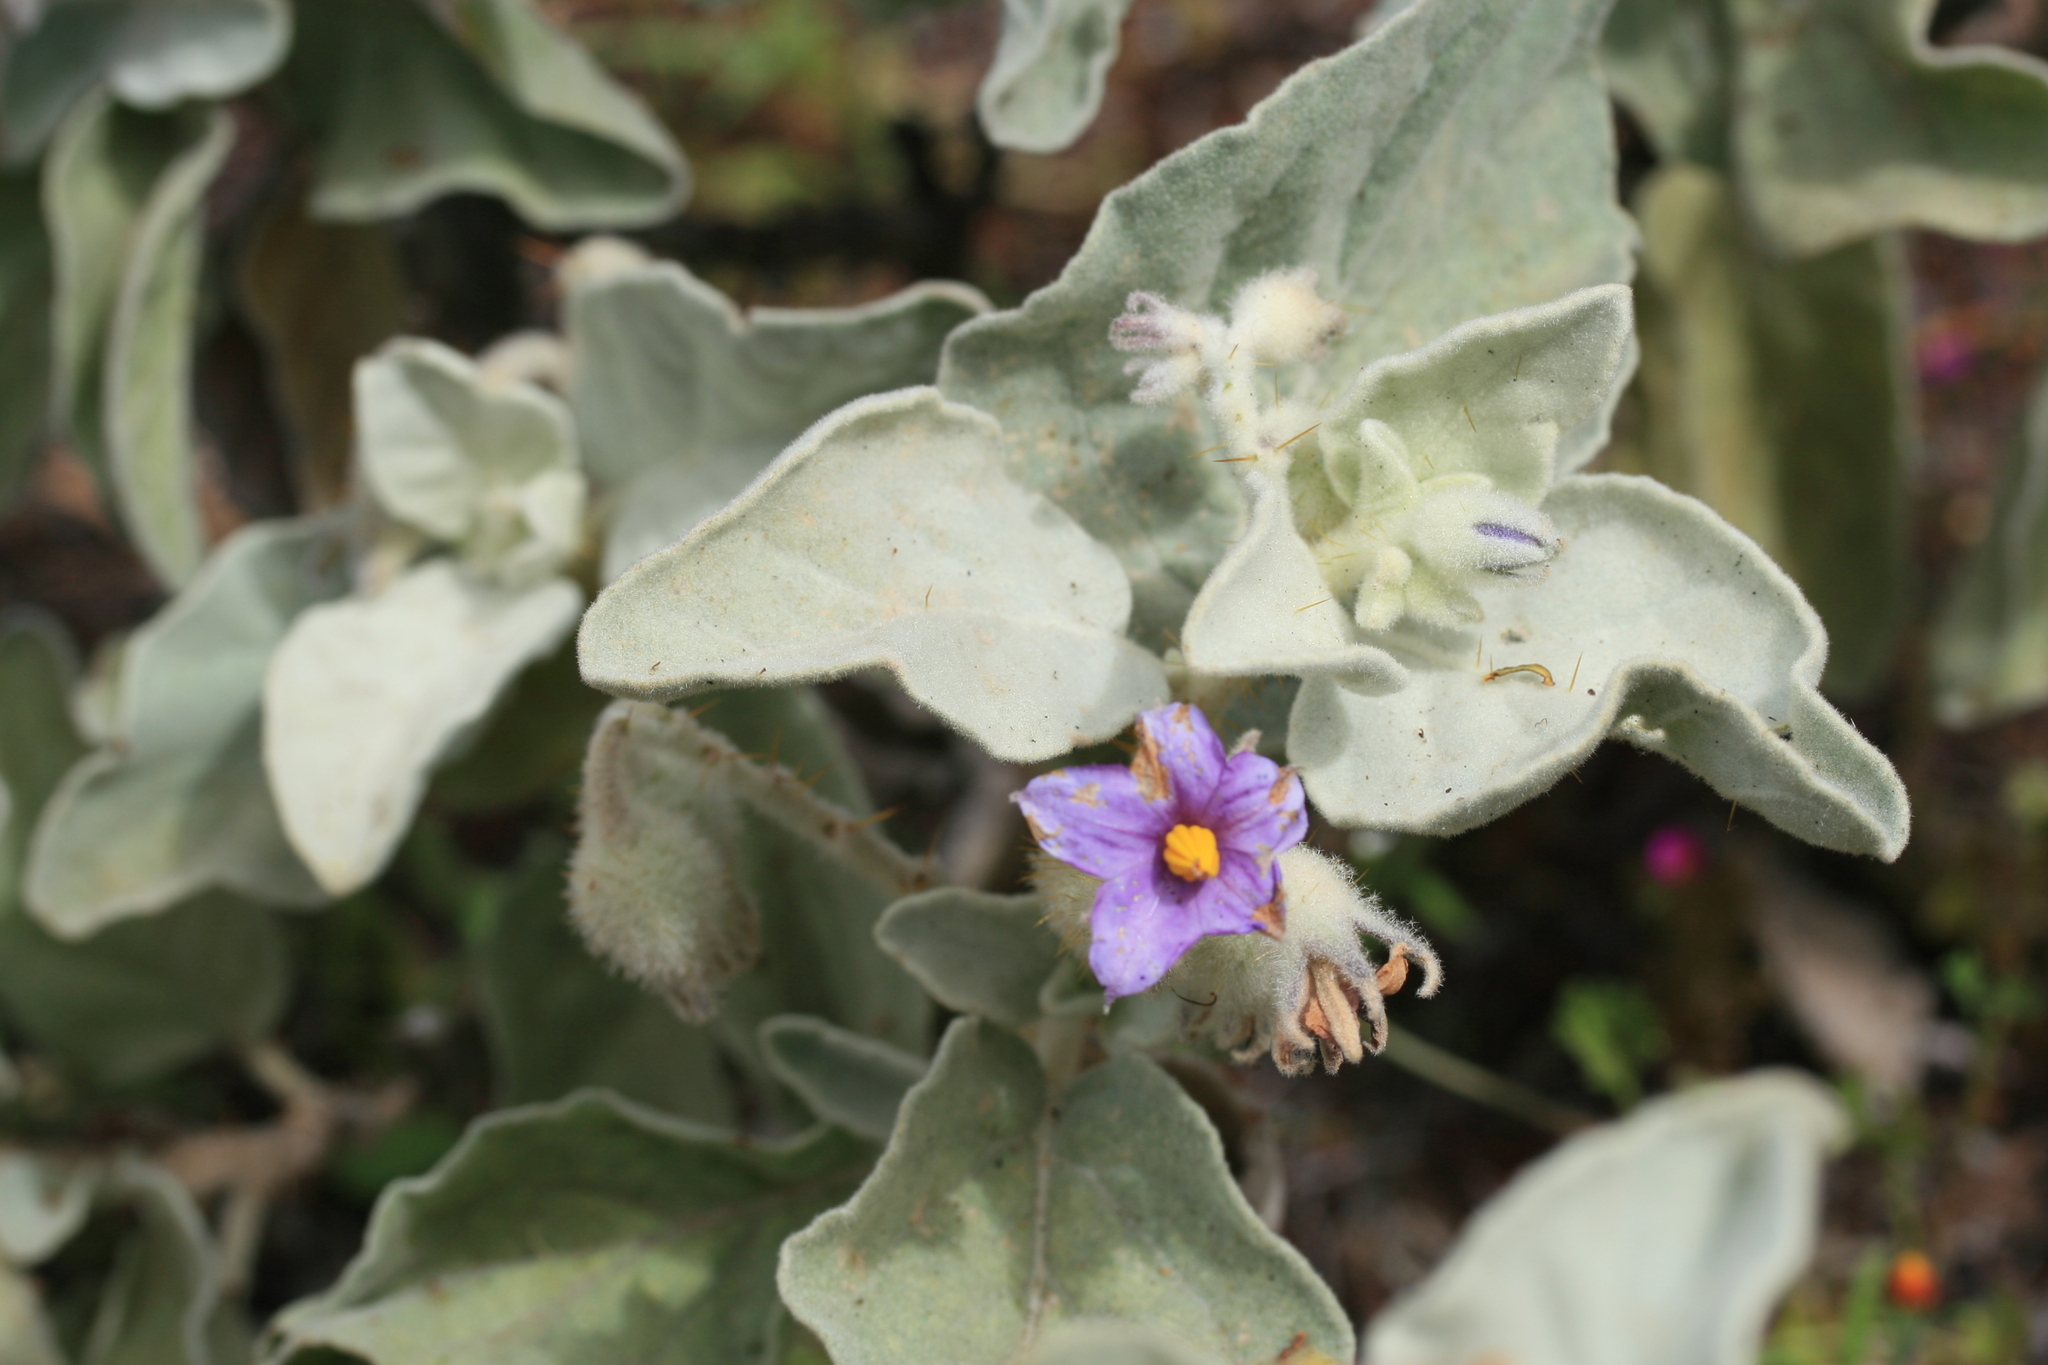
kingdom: Plantae
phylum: Tracheophyta
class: Magnoliopsida
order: Solanales
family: Solanaceae
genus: Solanum
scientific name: Solanum lasiophyllum
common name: Flannelbush
